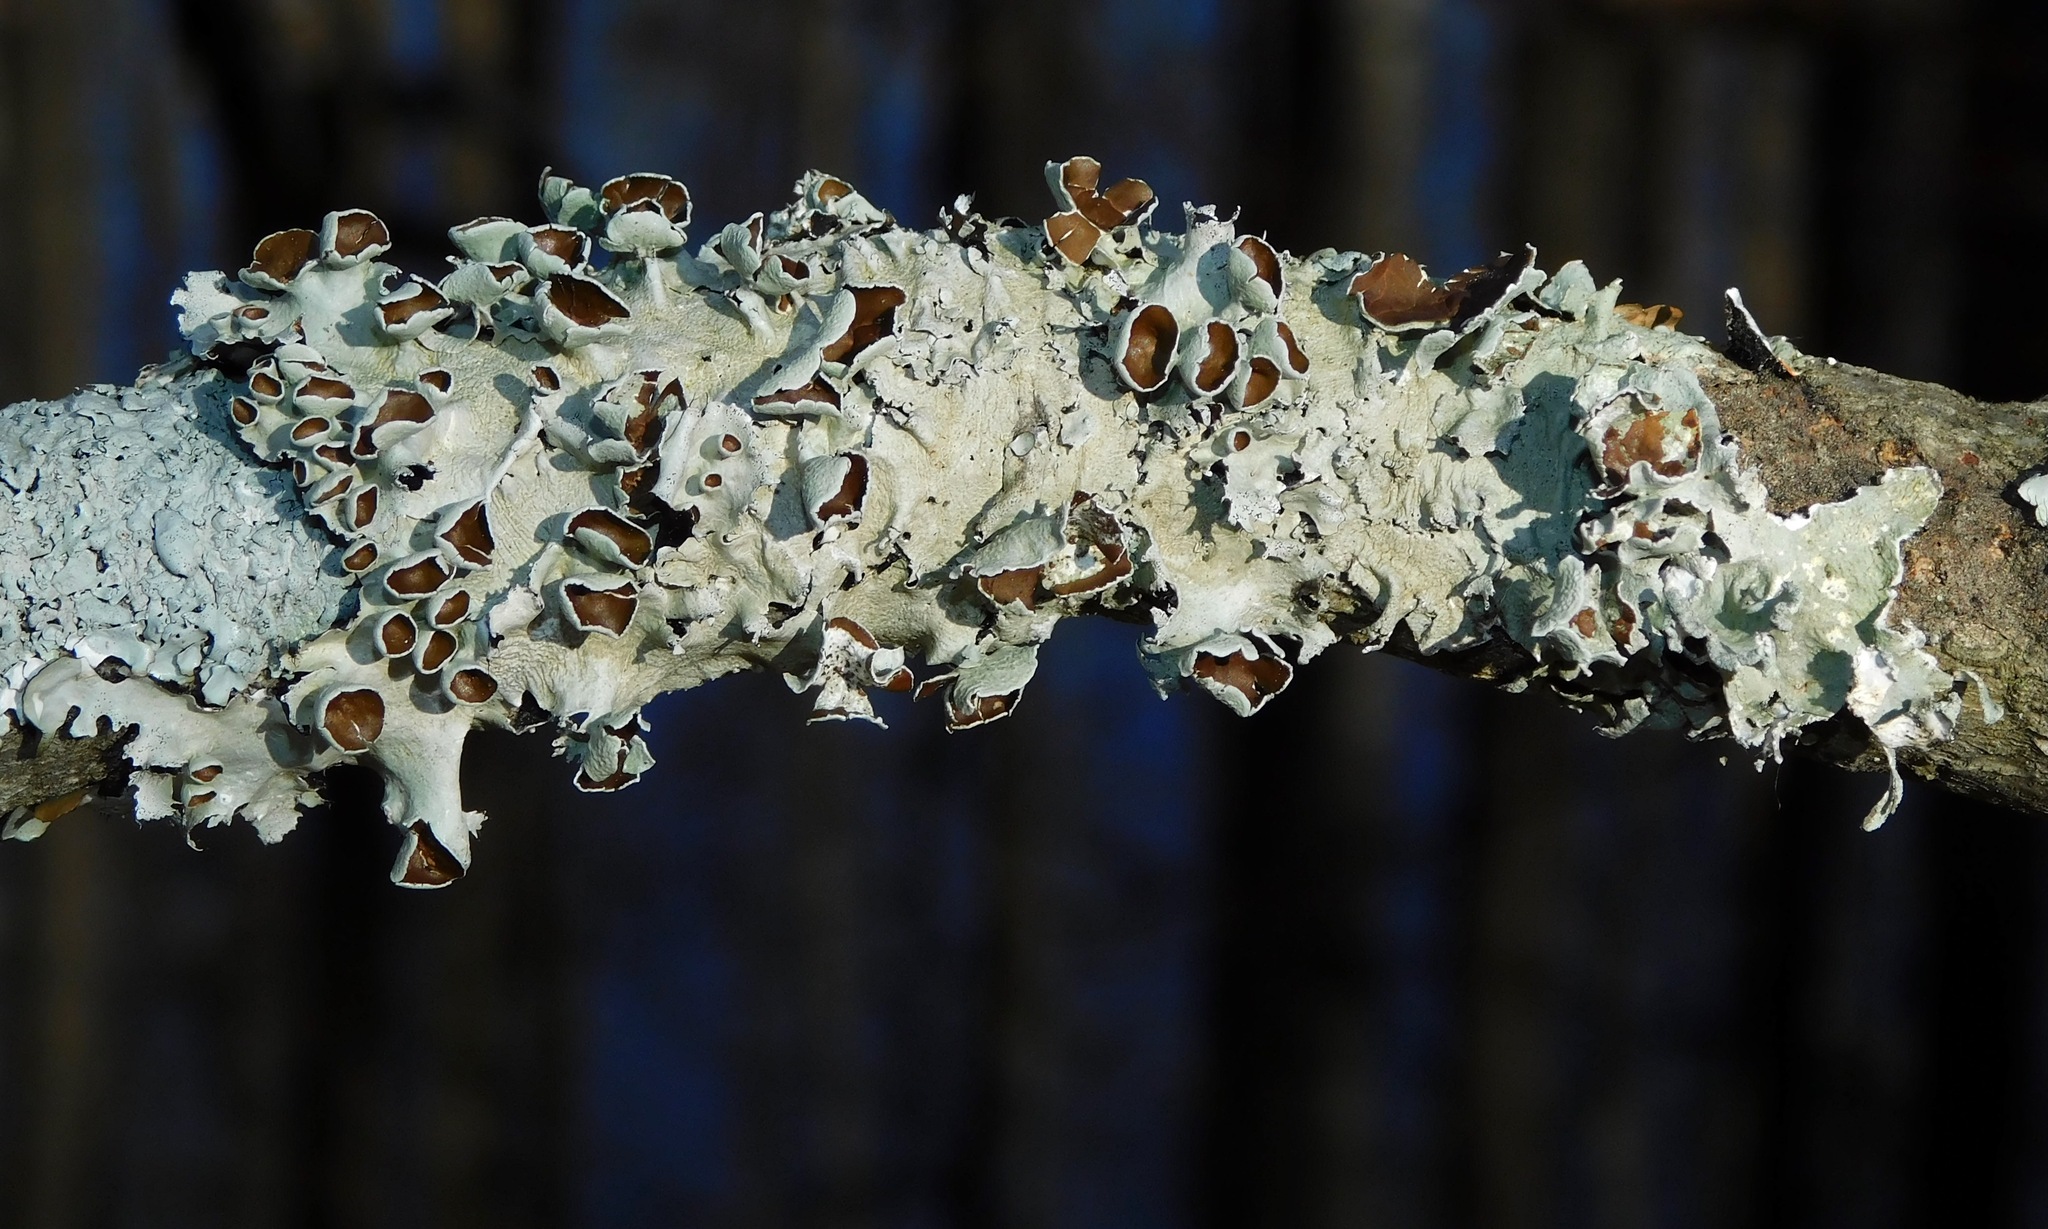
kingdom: Fungi
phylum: Ascomycota
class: Lecanoromycetes
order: Lecanorales
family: Parmeliaceae
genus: Parmotrema
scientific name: Parmotrema submarginale
